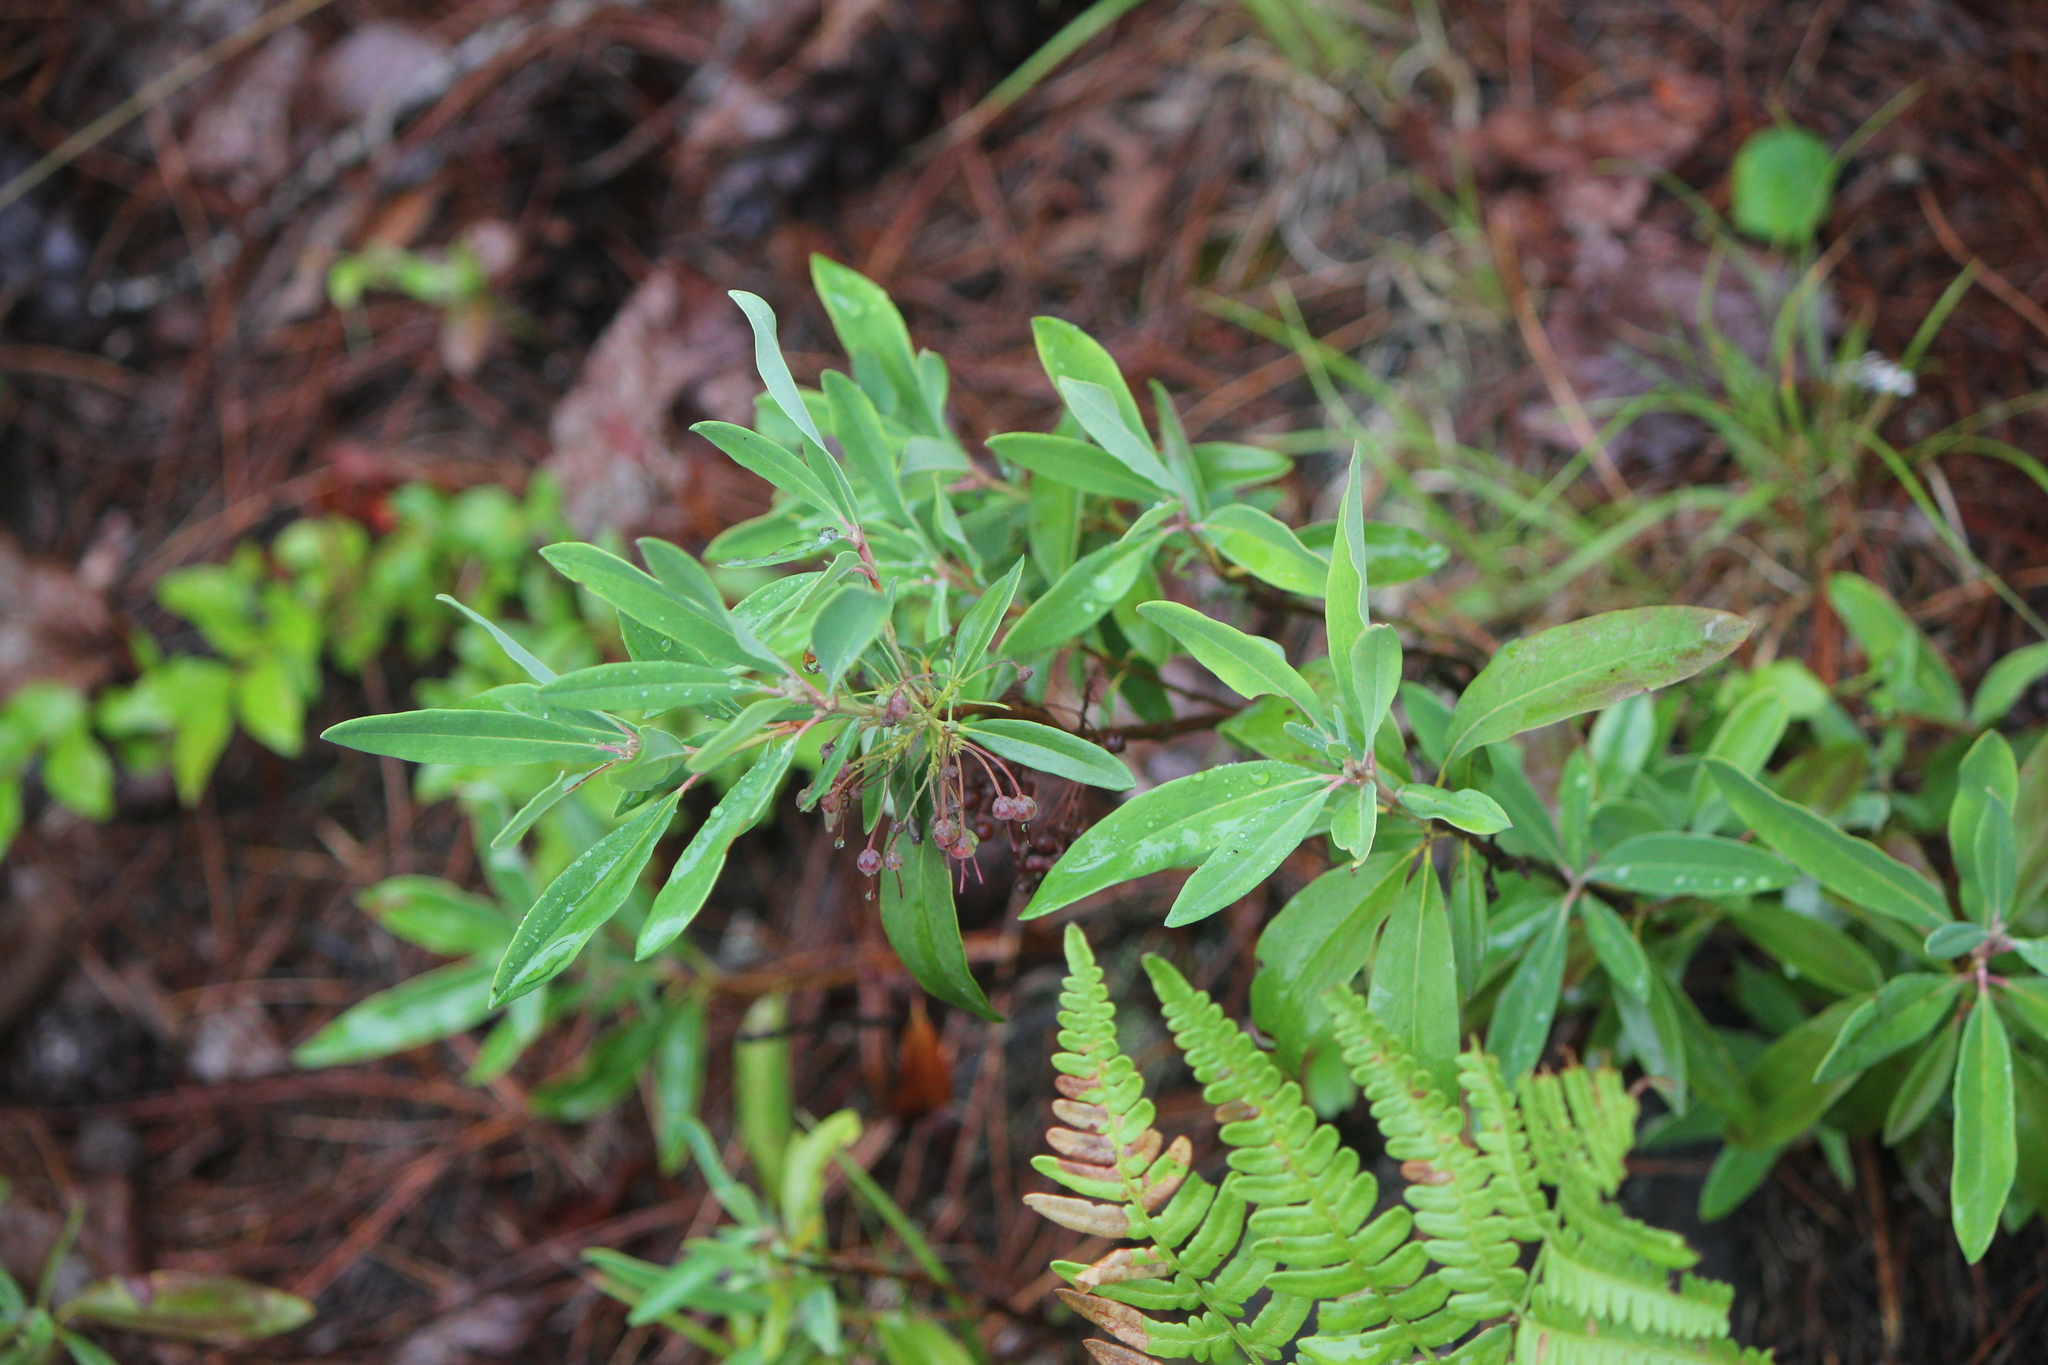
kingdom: Plantae
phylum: Tracheophyta
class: Magnoliopsida
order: Ericales
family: Ericaceae
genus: Kalmia
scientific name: Kalmia angustifolia
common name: Sheep-laurel
